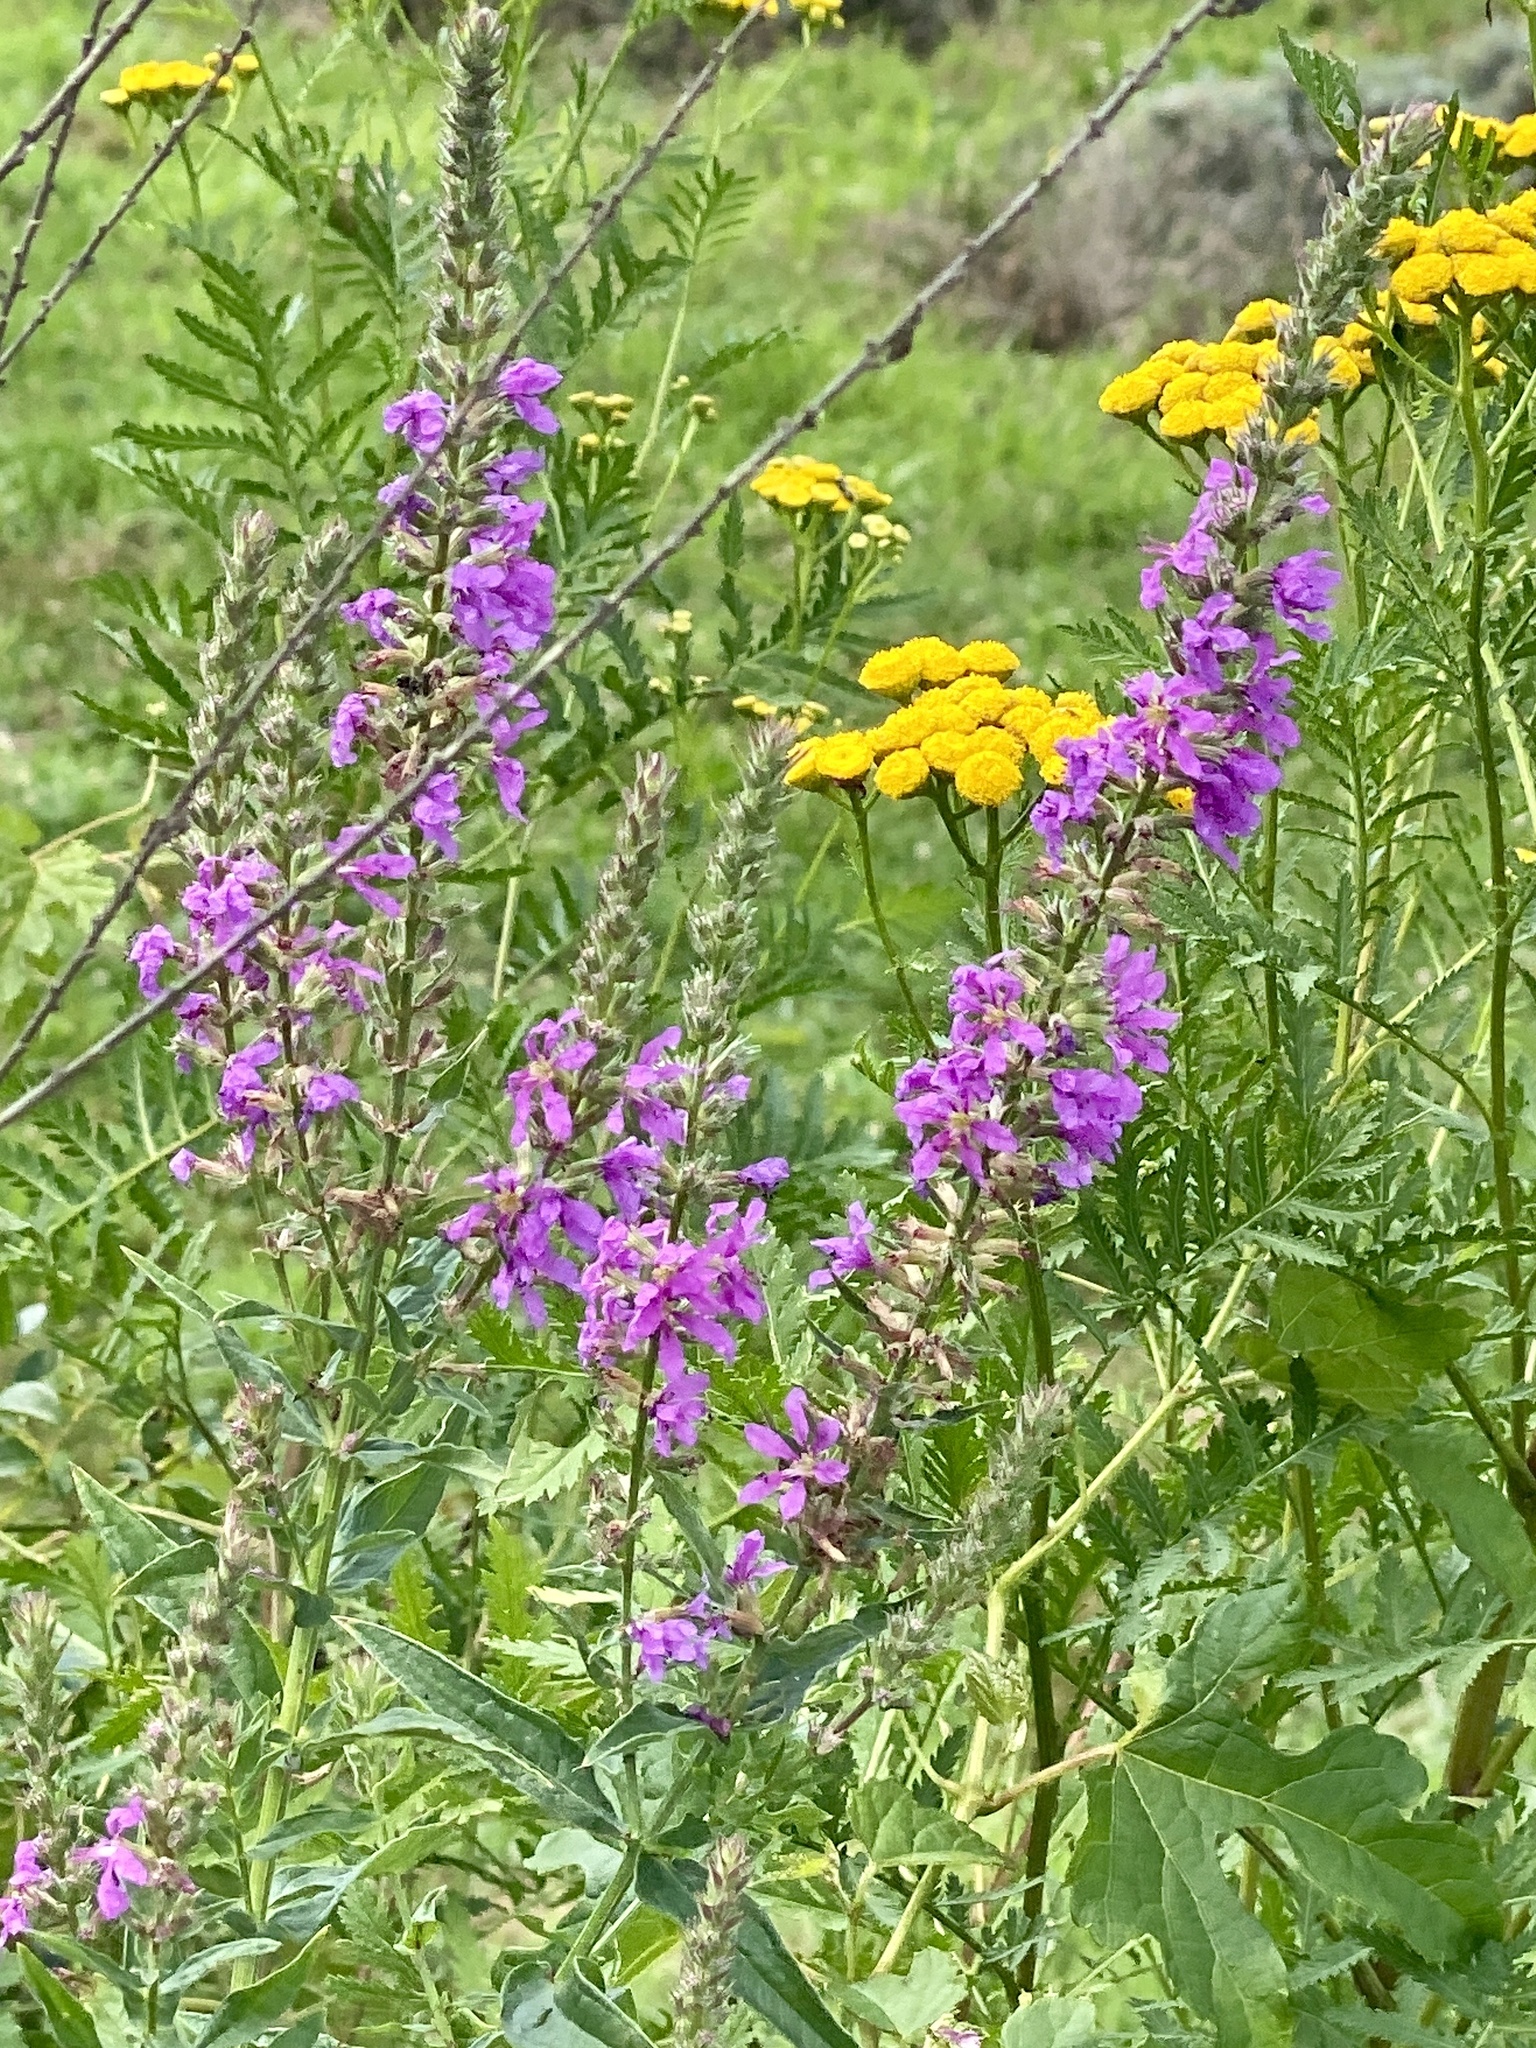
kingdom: Plantae
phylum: Tracheophyta
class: Magnoliopsida
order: Myrtales
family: Lythraceae
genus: Lythrum
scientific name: Lythrum salicaria
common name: Purple loosestrife
